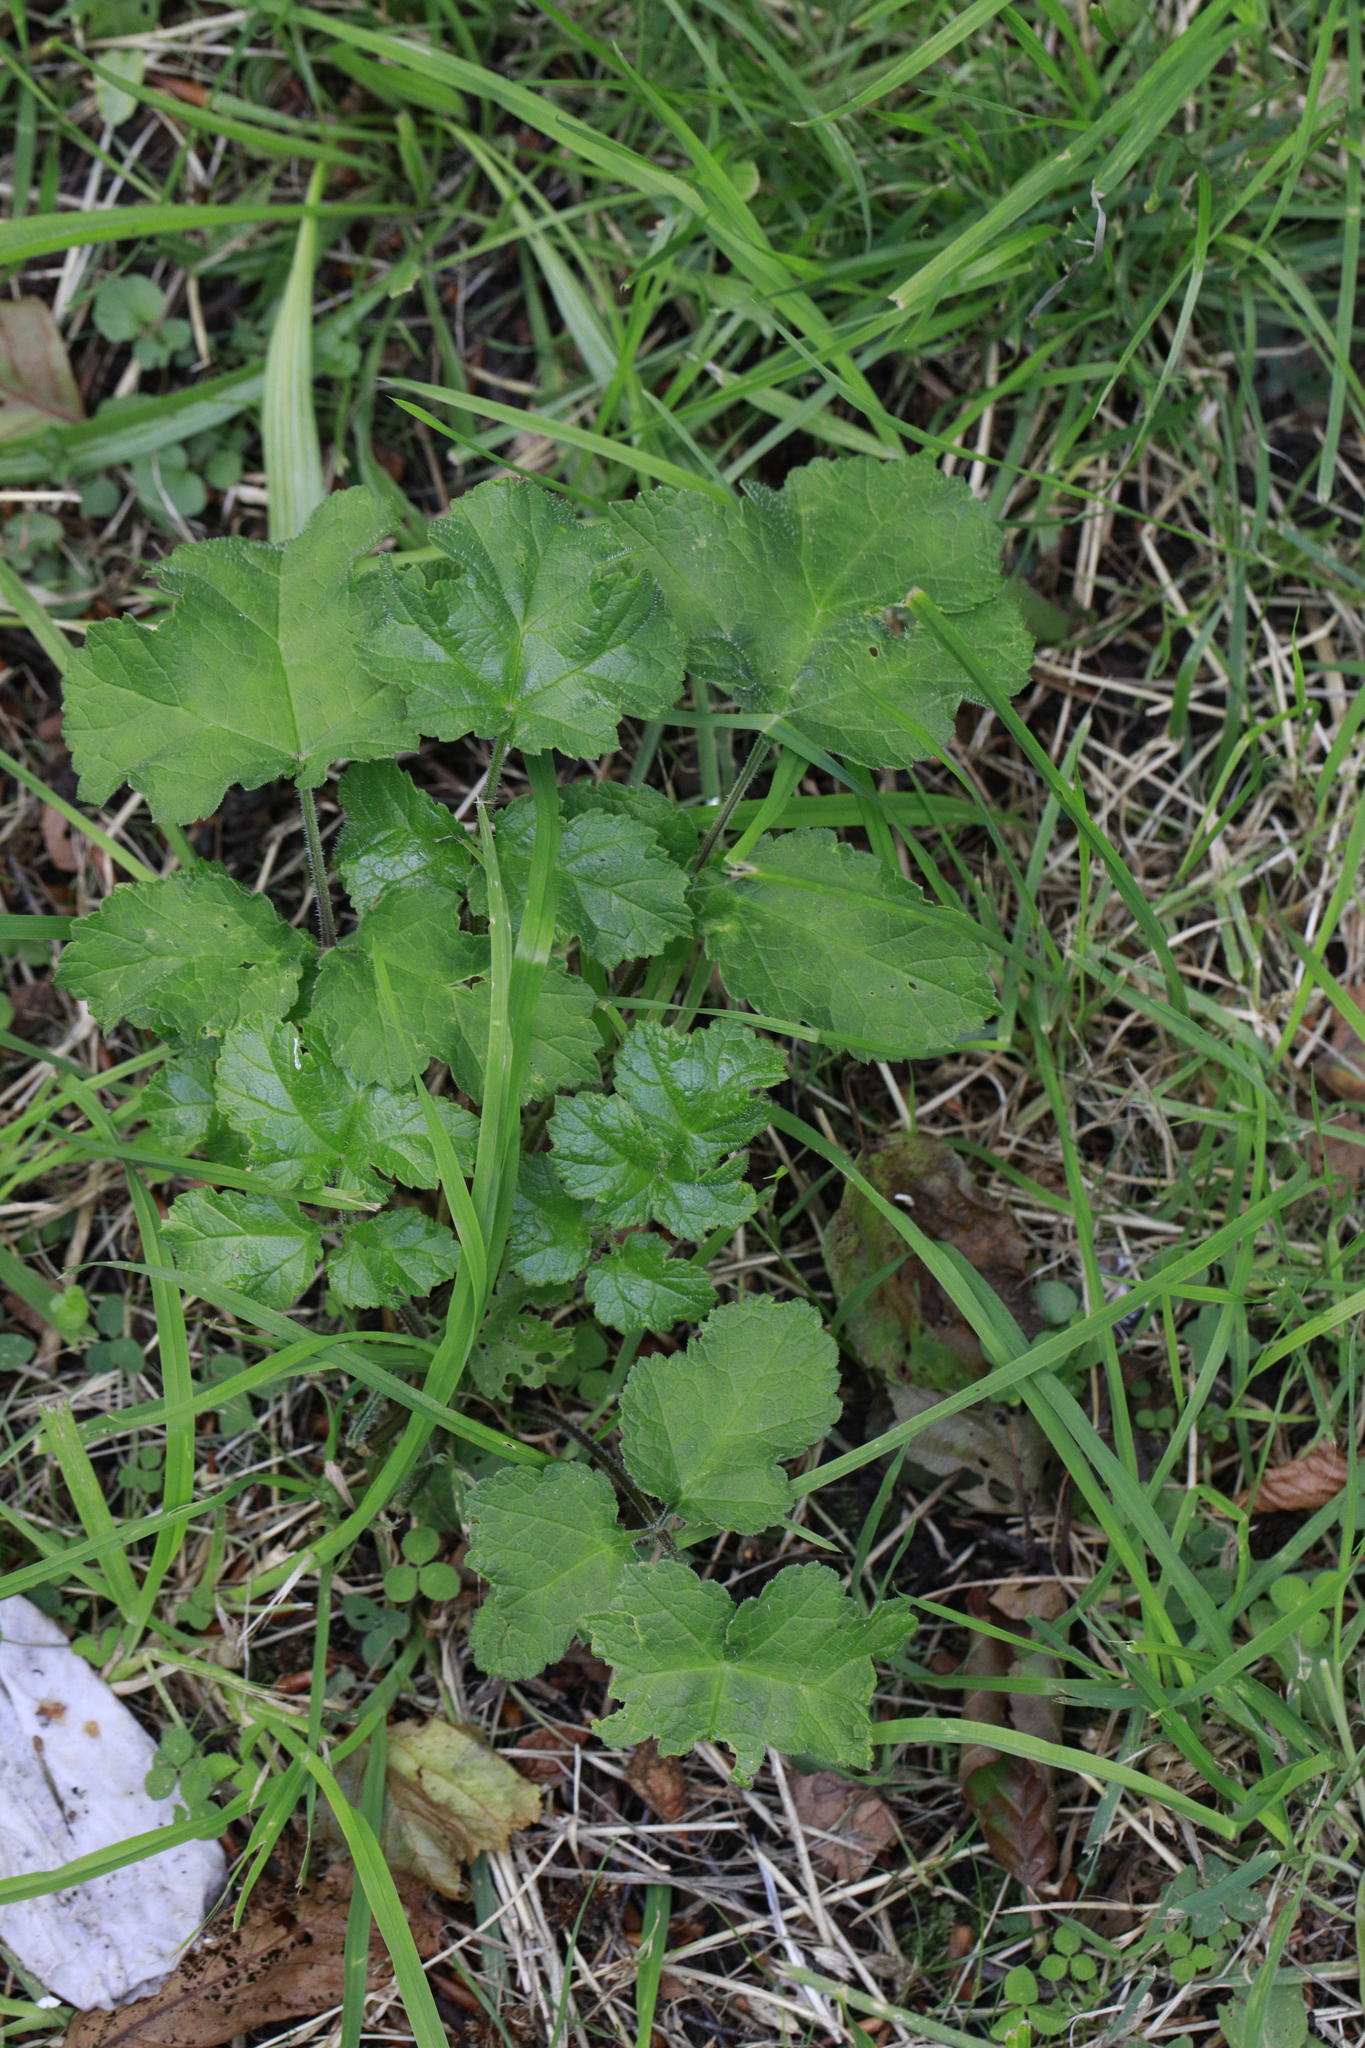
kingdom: Plantae
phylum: Tracheophyta
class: Magnoliopsida
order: Apiales
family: Apiaceae
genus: Heracleum
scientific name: Heracleum sphondylium
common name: Hogweed
